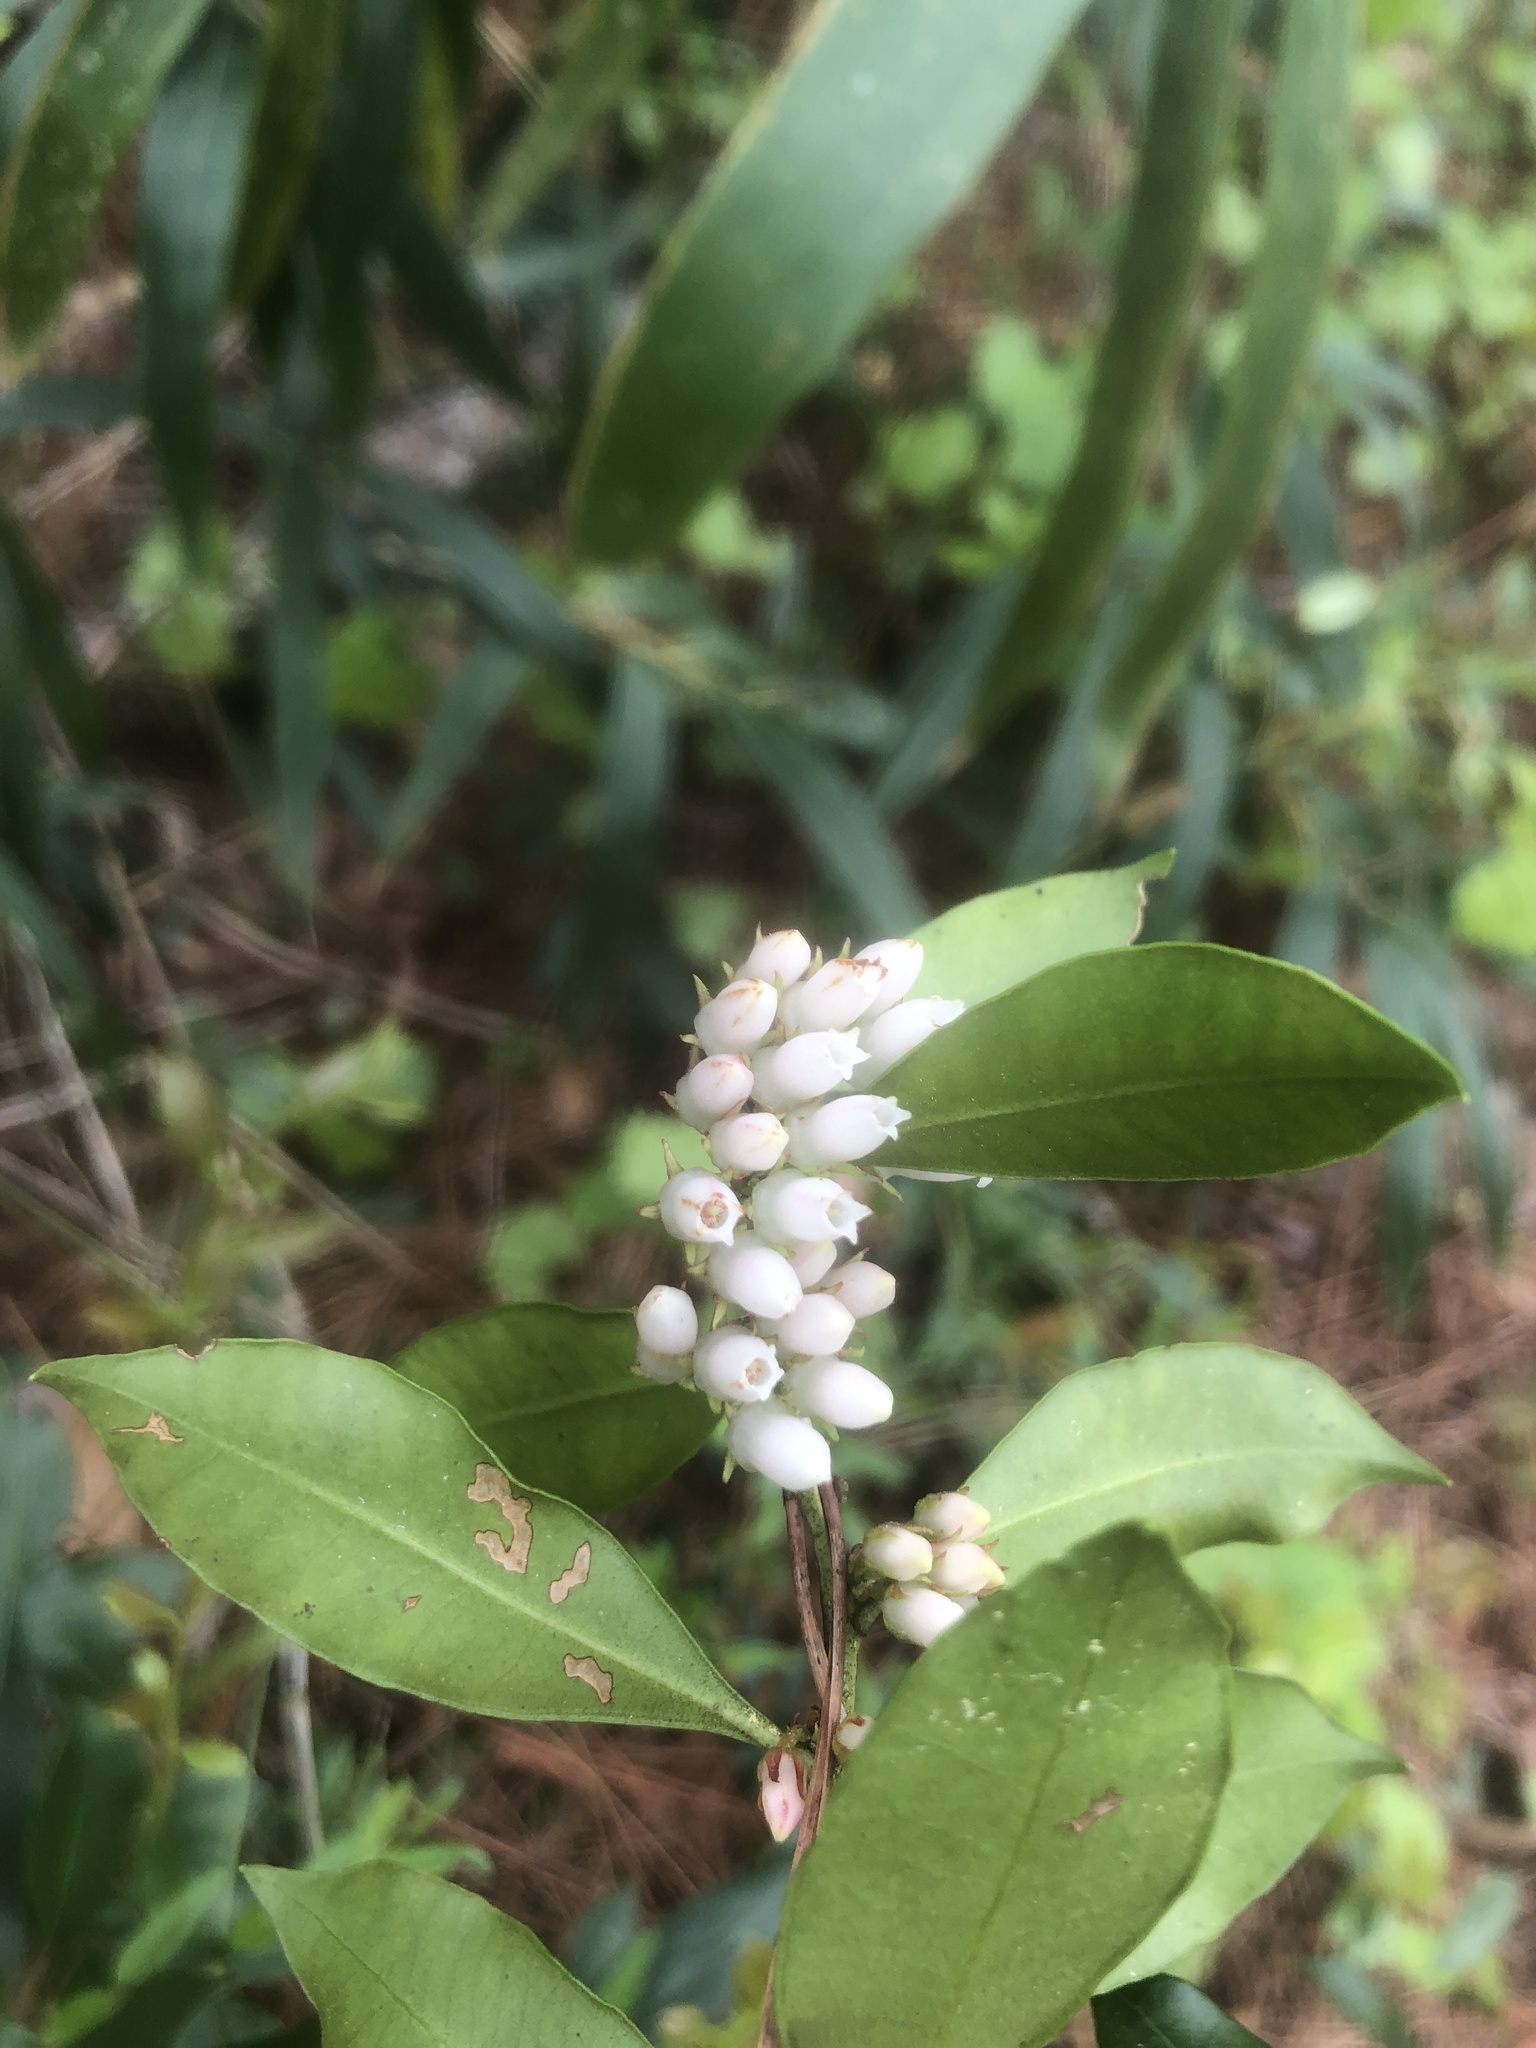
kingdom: Plantae
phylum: Tracheophyta
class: Magnoliopsida
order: Ericales
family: Ericaceae
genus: Lyonia
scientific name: Lyonia lucida
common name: Fetterbush
